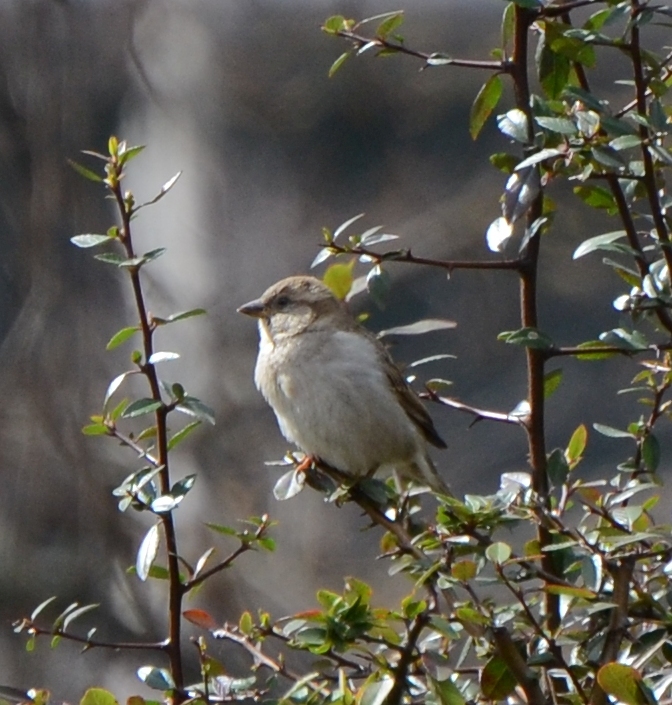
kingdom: Animalia
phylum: Chordata
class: Aves
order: Passeriformes
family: Passeridae
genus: Passer
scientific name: Passer domesticus
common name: House sparrow
